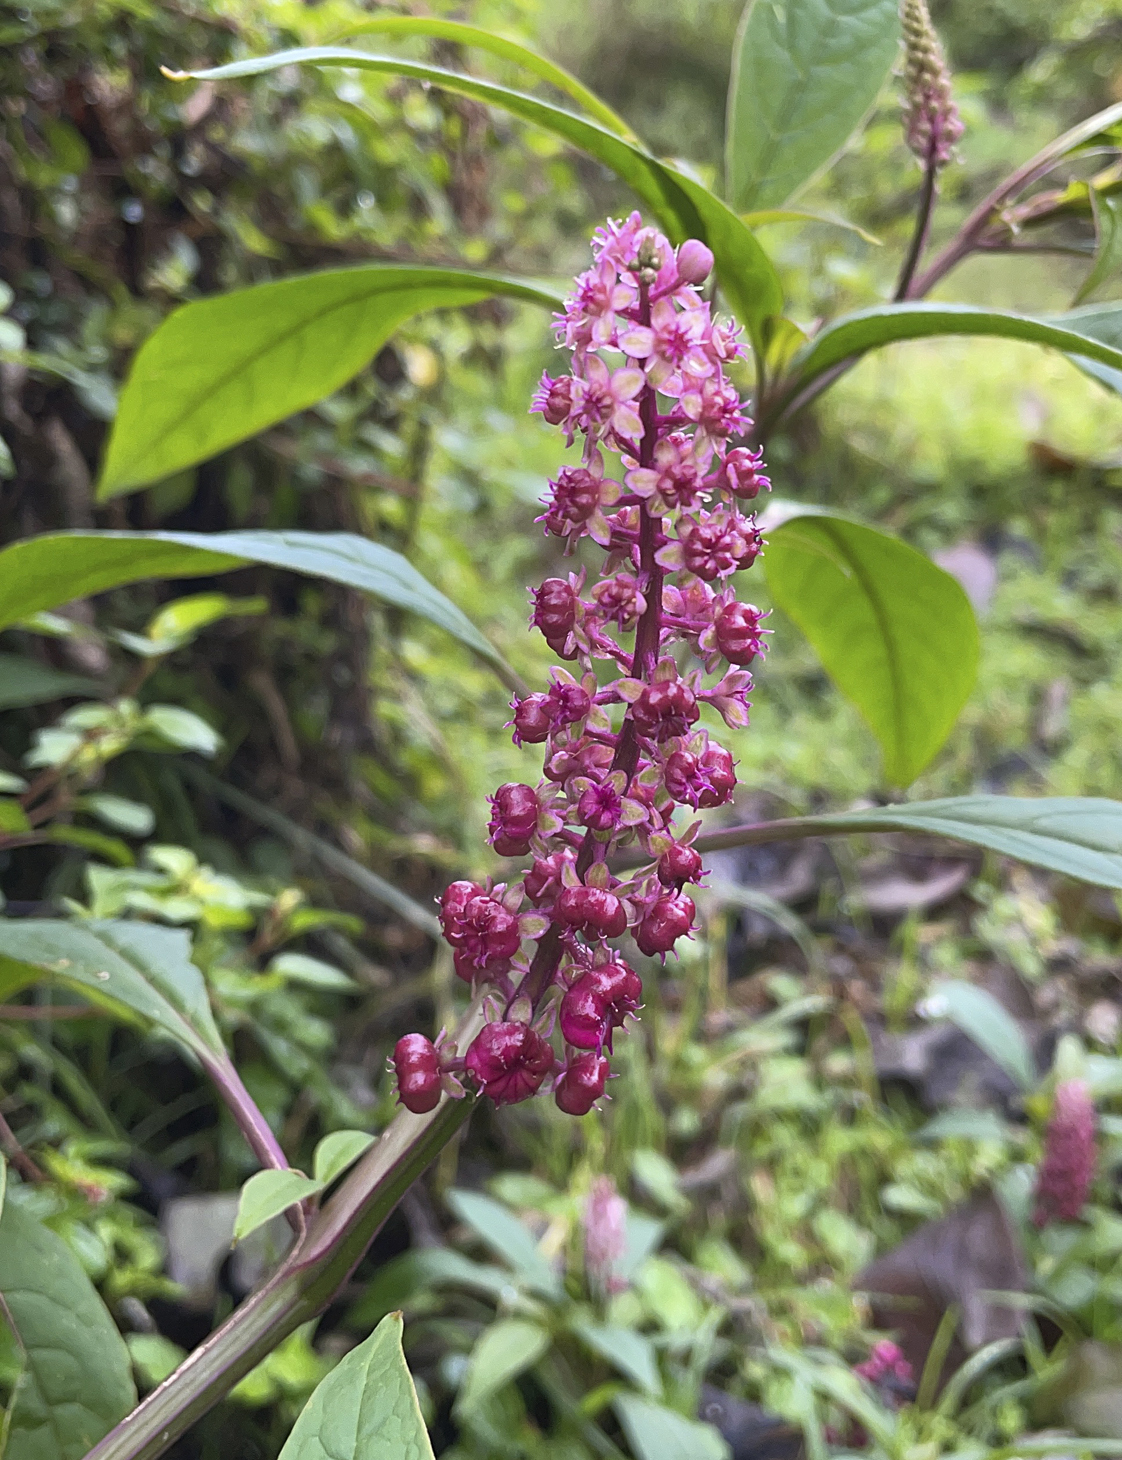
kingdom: Plantae
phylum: Tracheophyta
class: Magnoliopsida
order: Caryophyllales
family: Phytolaccaceae
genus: Phytolacca
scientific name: Phytolacca rugosa
